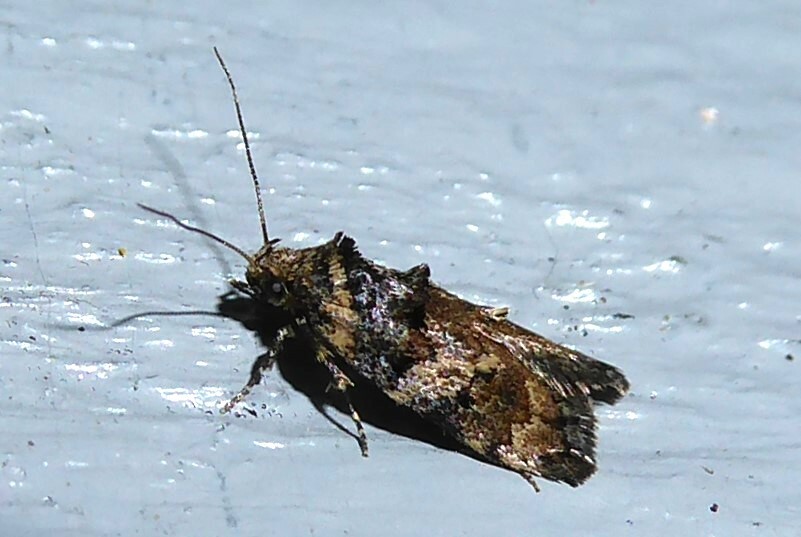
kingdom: Animalia
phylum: Arthropoda
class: Insecta
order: Lepidoptera
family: Oecophoridae
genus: Trachypepla
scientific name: Trachypepla anastrella
